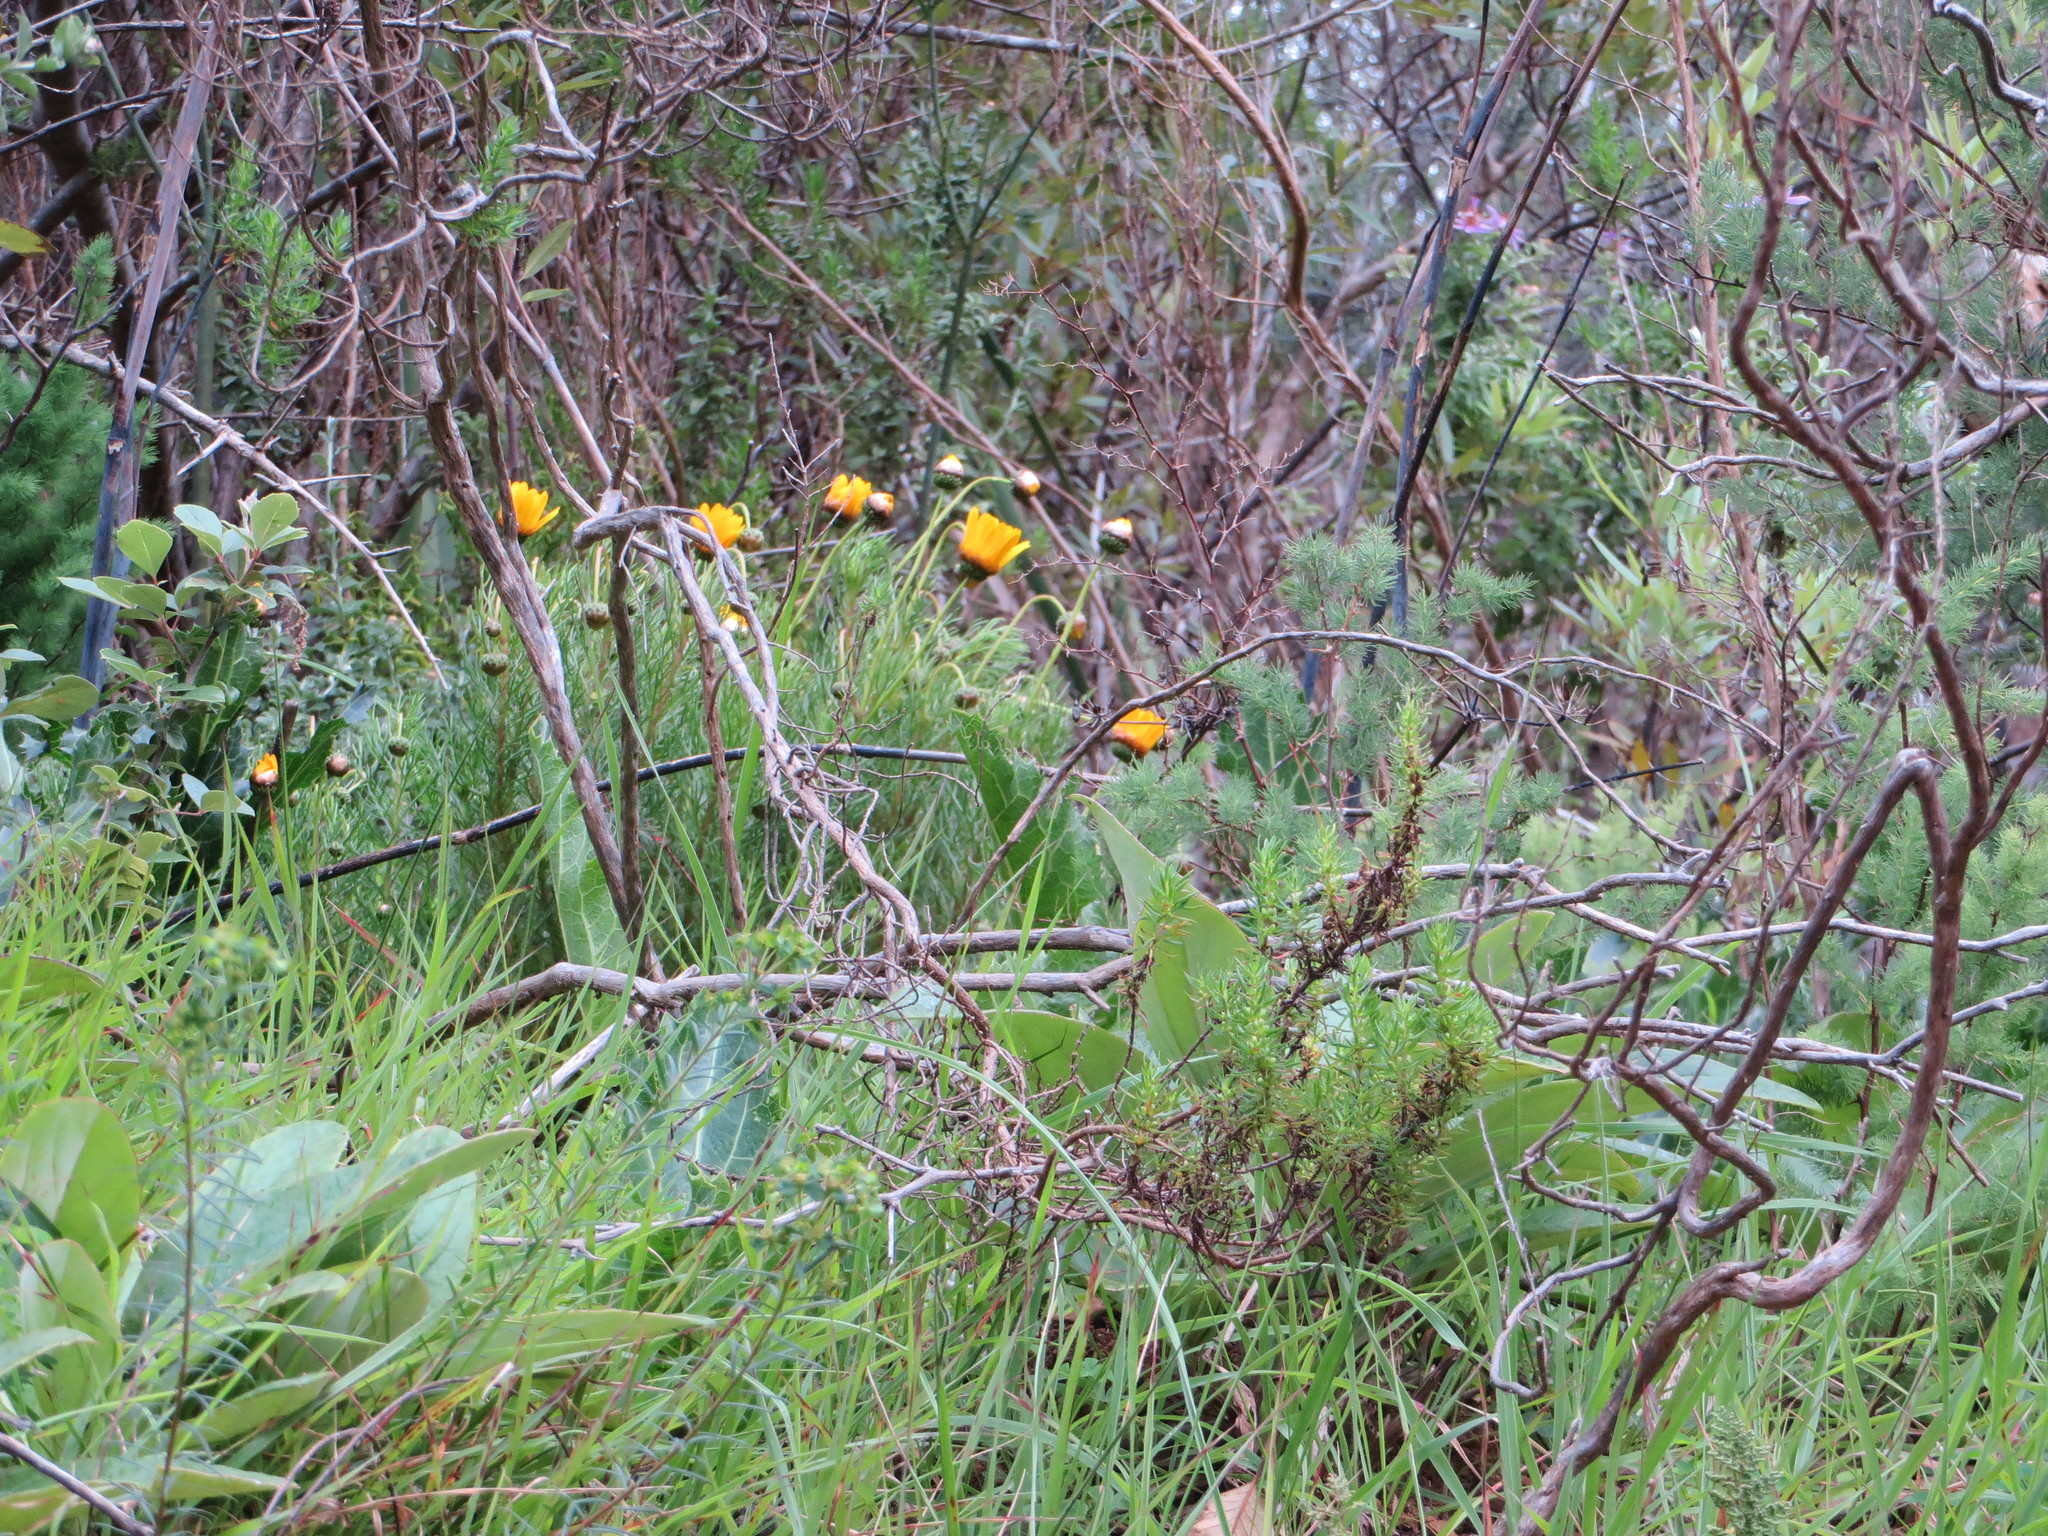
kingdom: Plantae
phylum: Tracheophyta
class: Magnoliopsida
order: Asterales
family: Asteraceae
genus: Ursinia
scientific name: Ursinia paleacea
